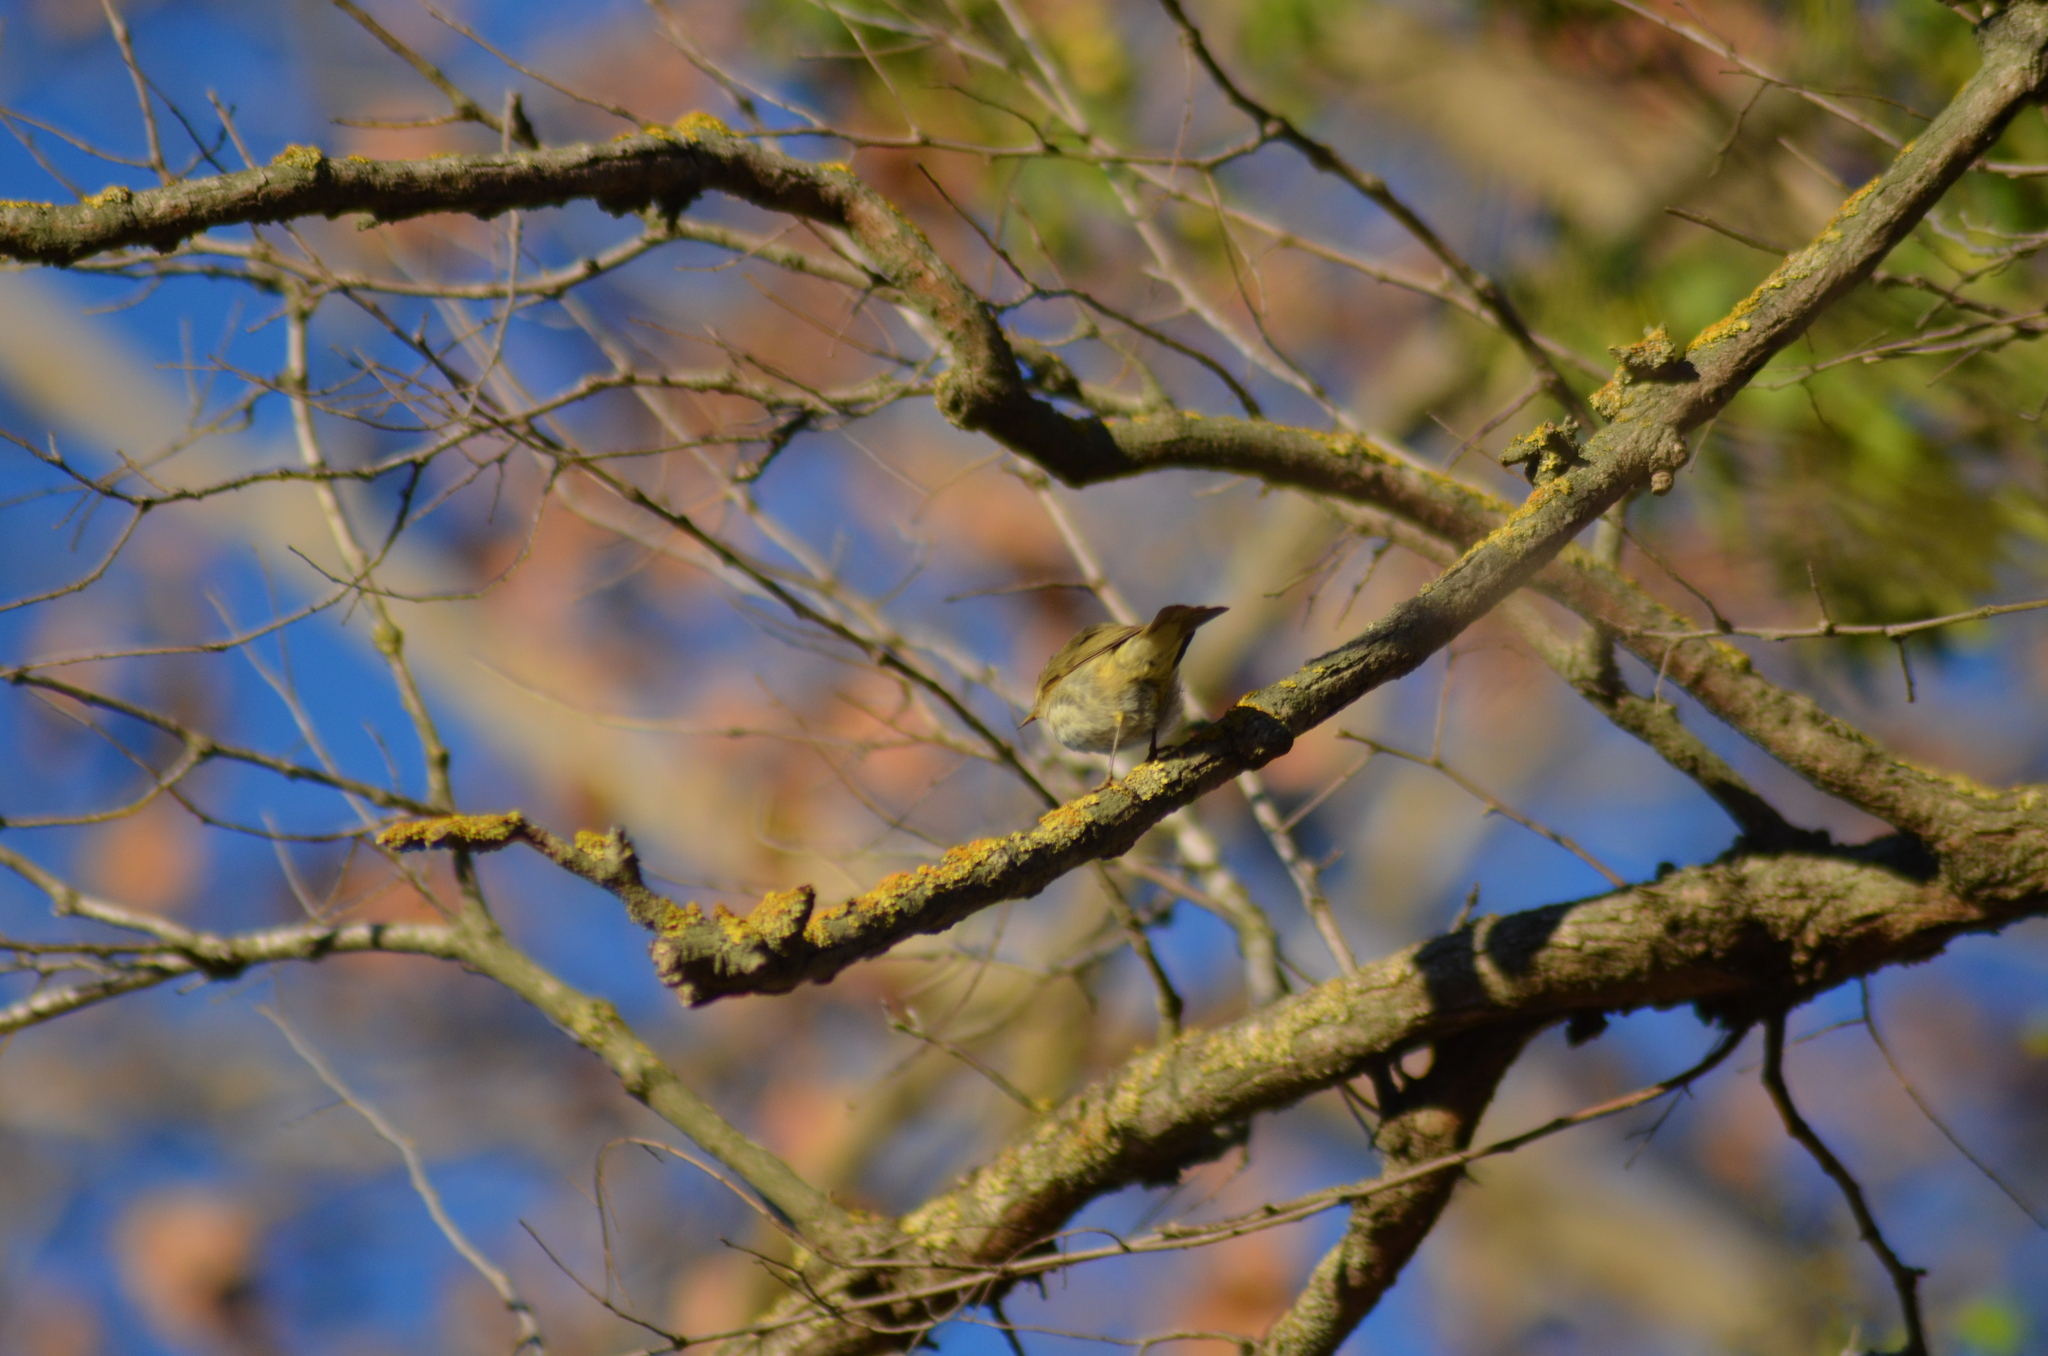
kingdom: Animalia
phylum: Chordata
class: Aves
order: Passeriformes
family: Phylloscopidae
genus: Phylloscopus
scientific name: Phylloscopus collybita
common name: Common chiffchaff
